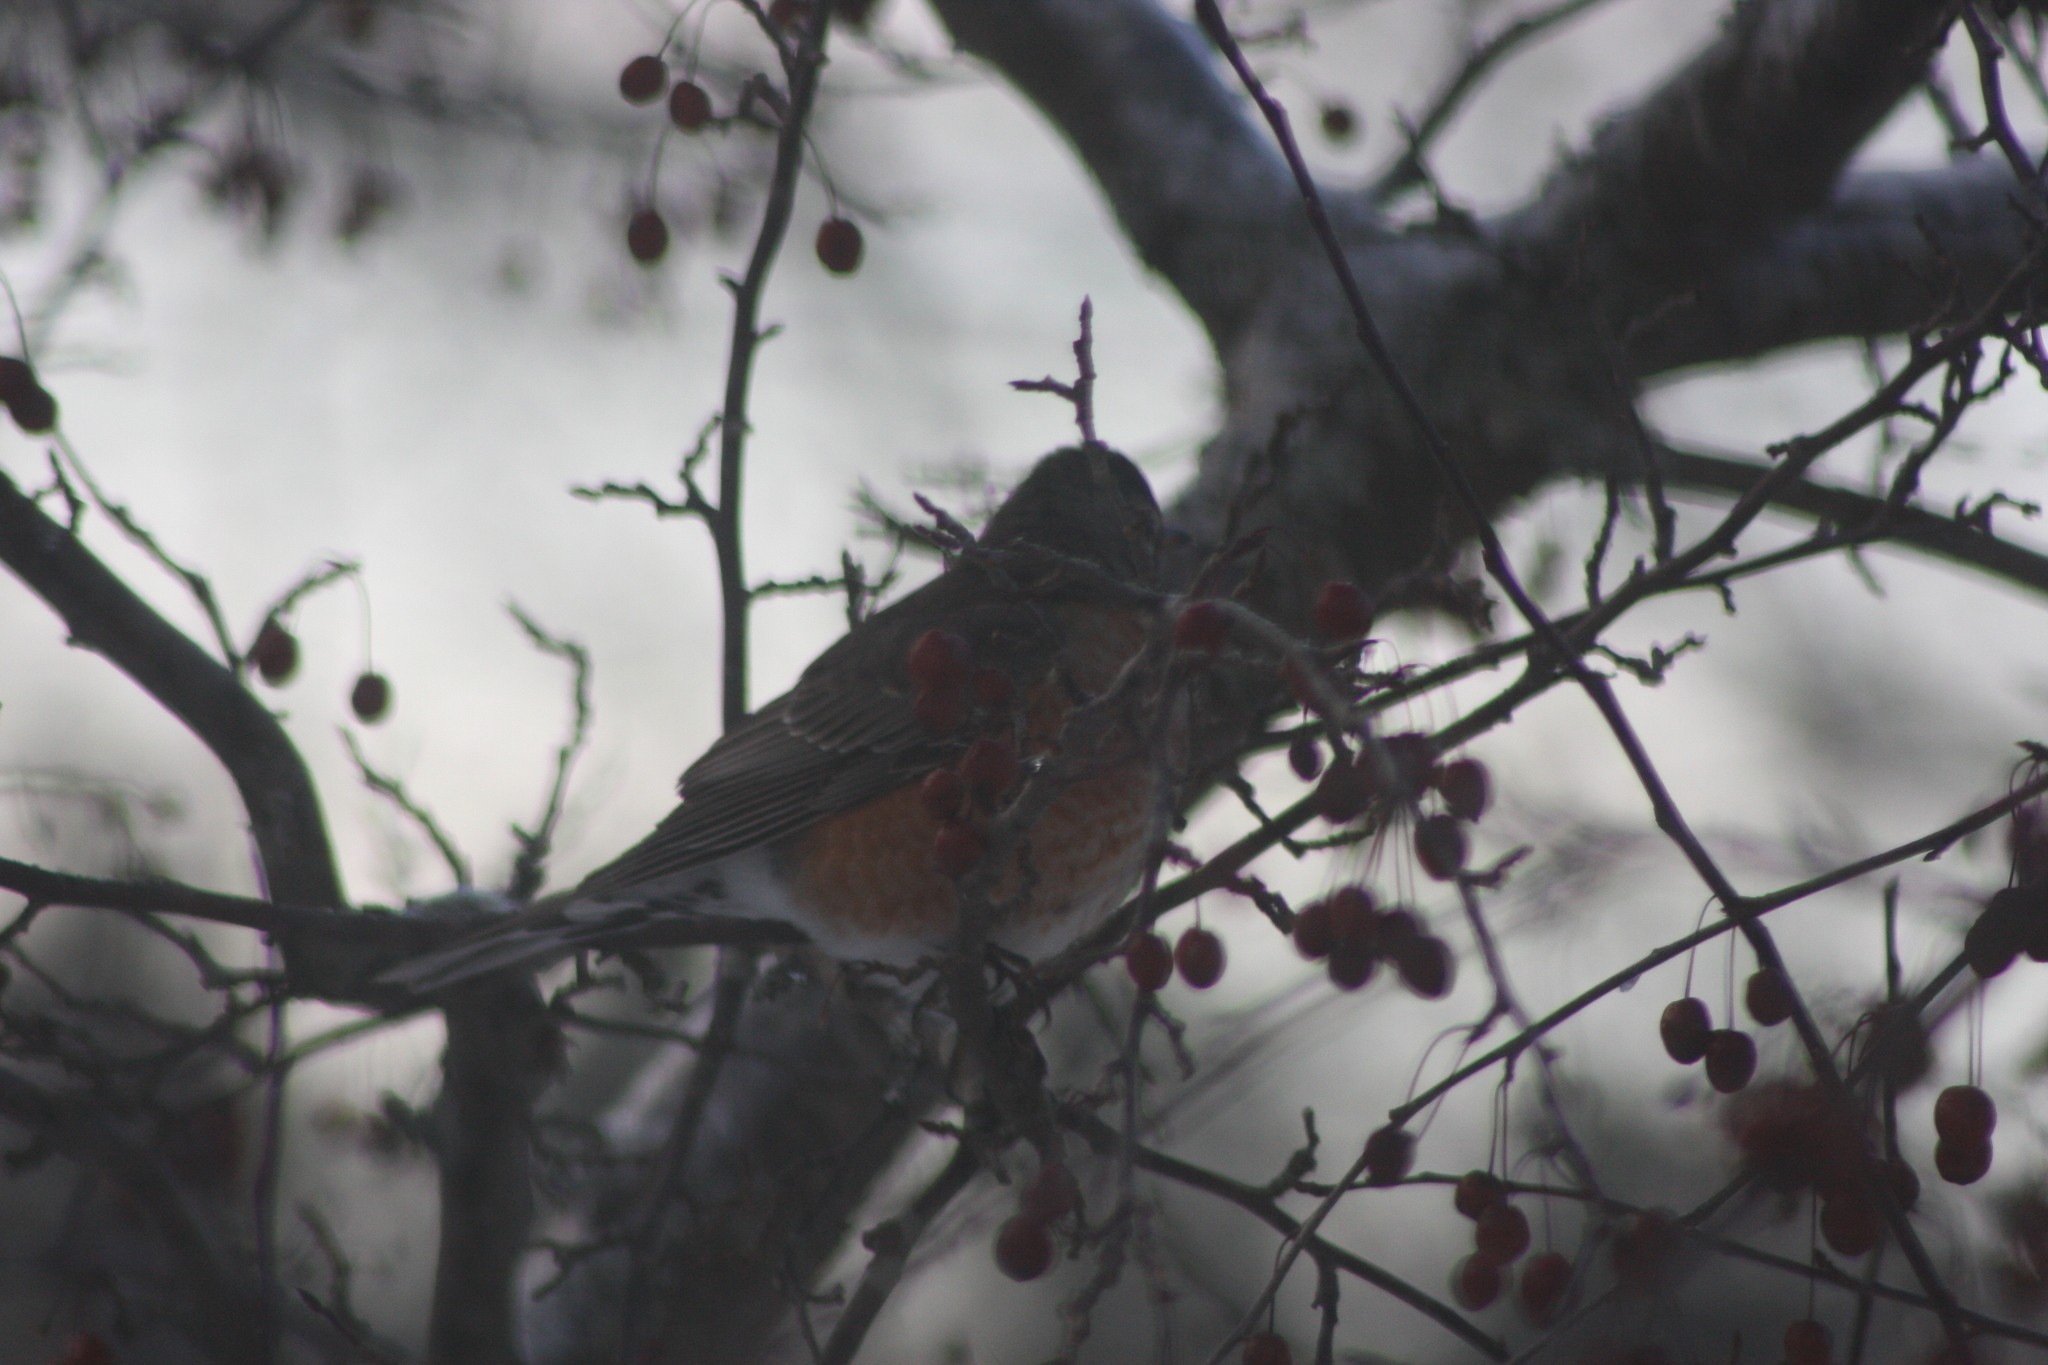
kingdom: Animalia
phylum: Chordata
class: Aves
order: Passeriformes
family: Turdidae
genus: Turdus
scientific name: Turdus migratorius
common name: American robin
